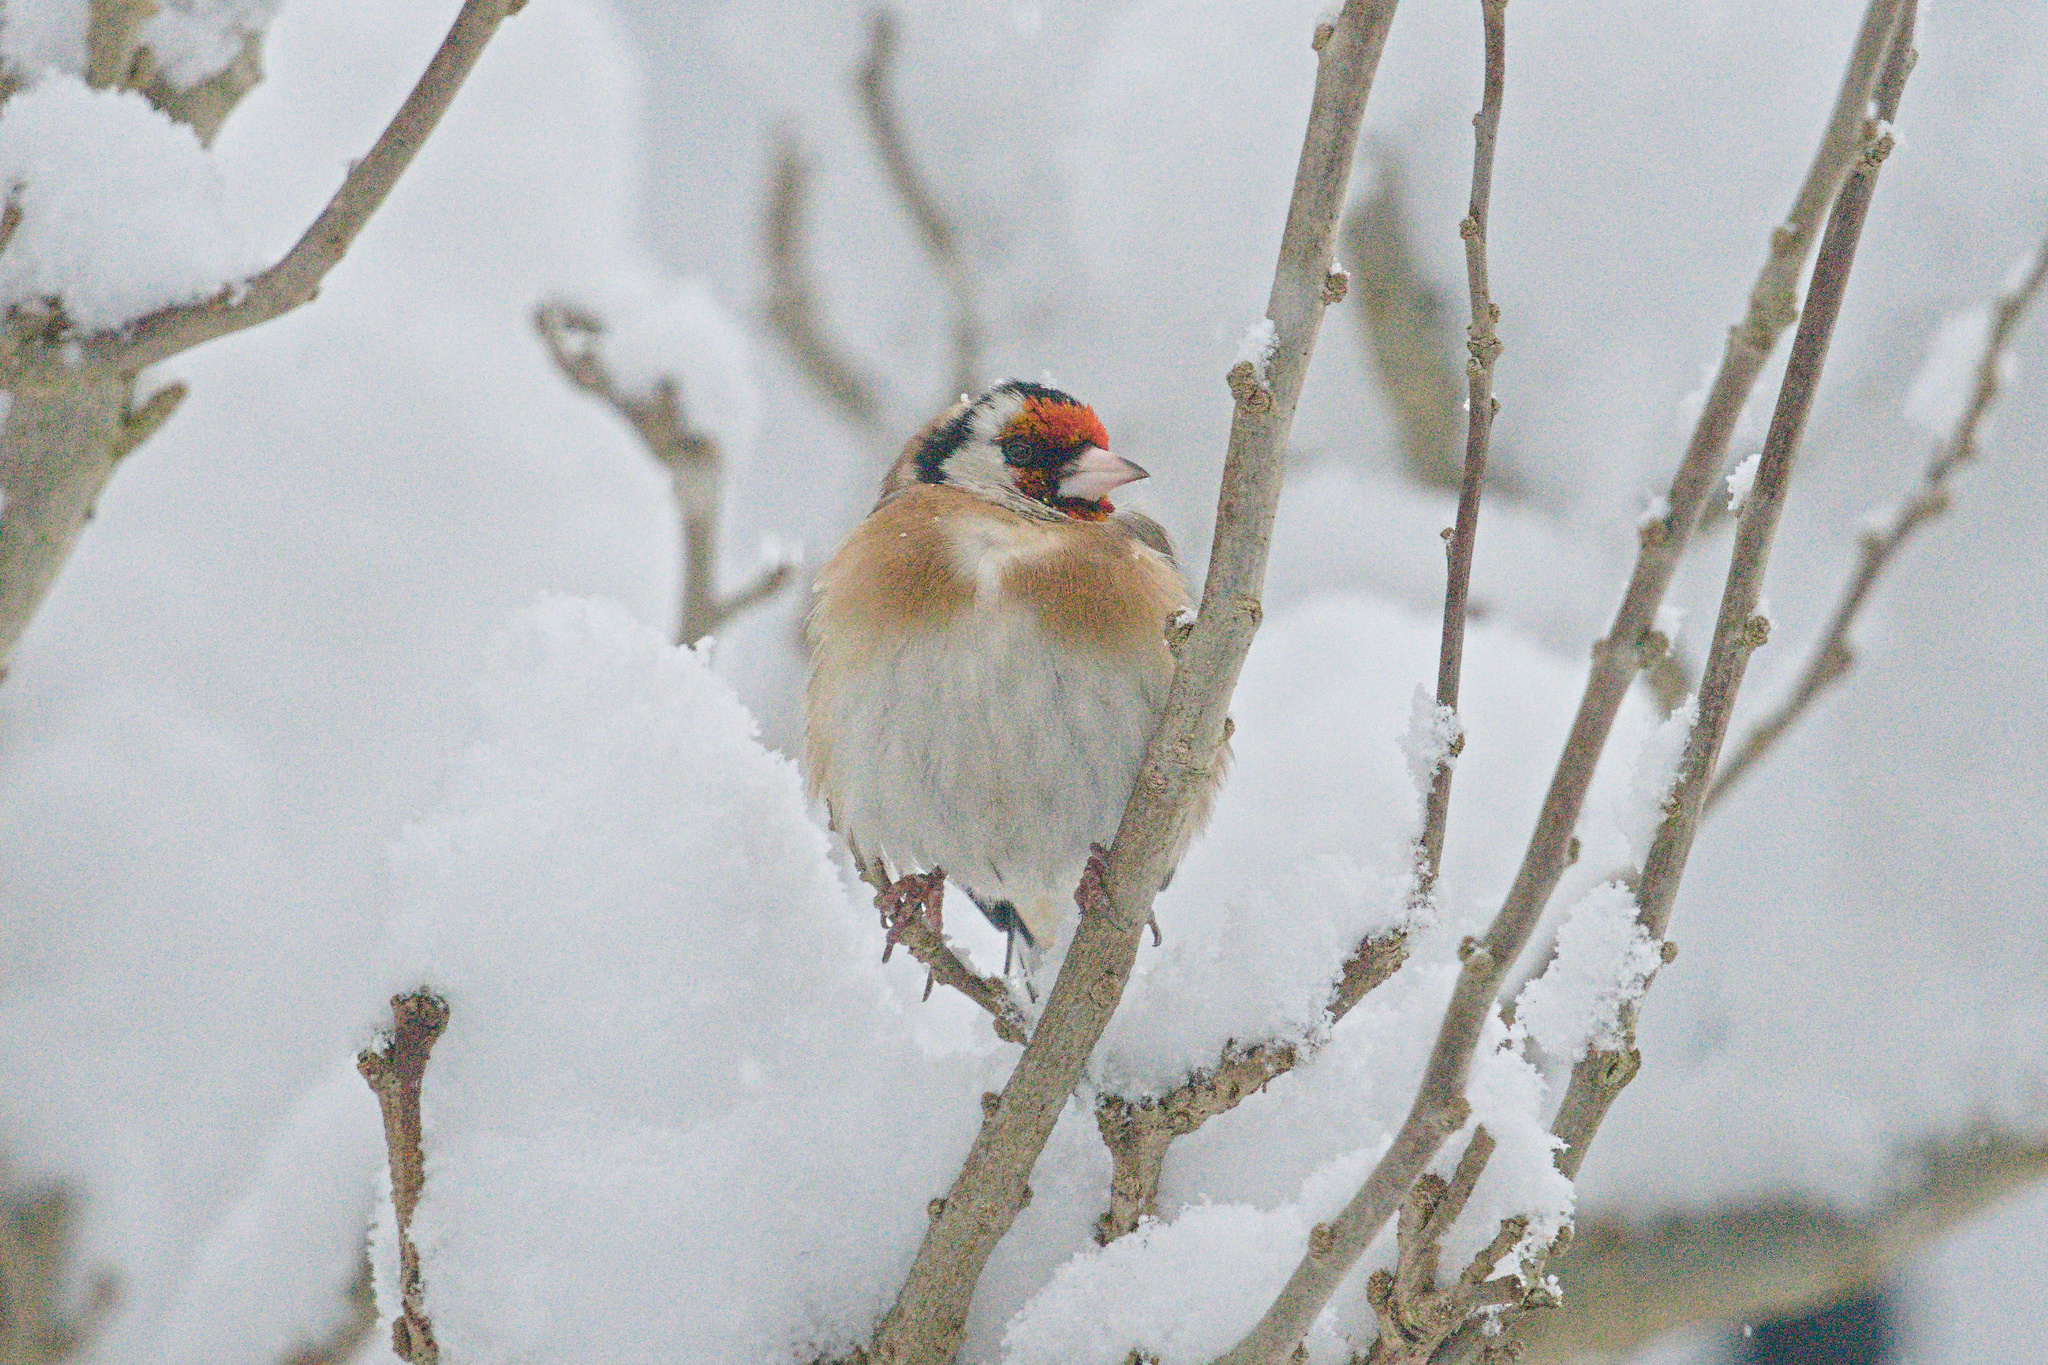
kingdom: Animalia
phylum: Chordata
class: Aves
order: Passeriformes
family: Fringillidae
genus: Carduelis
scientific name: Carduelis carduelis
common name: European goldfinch
